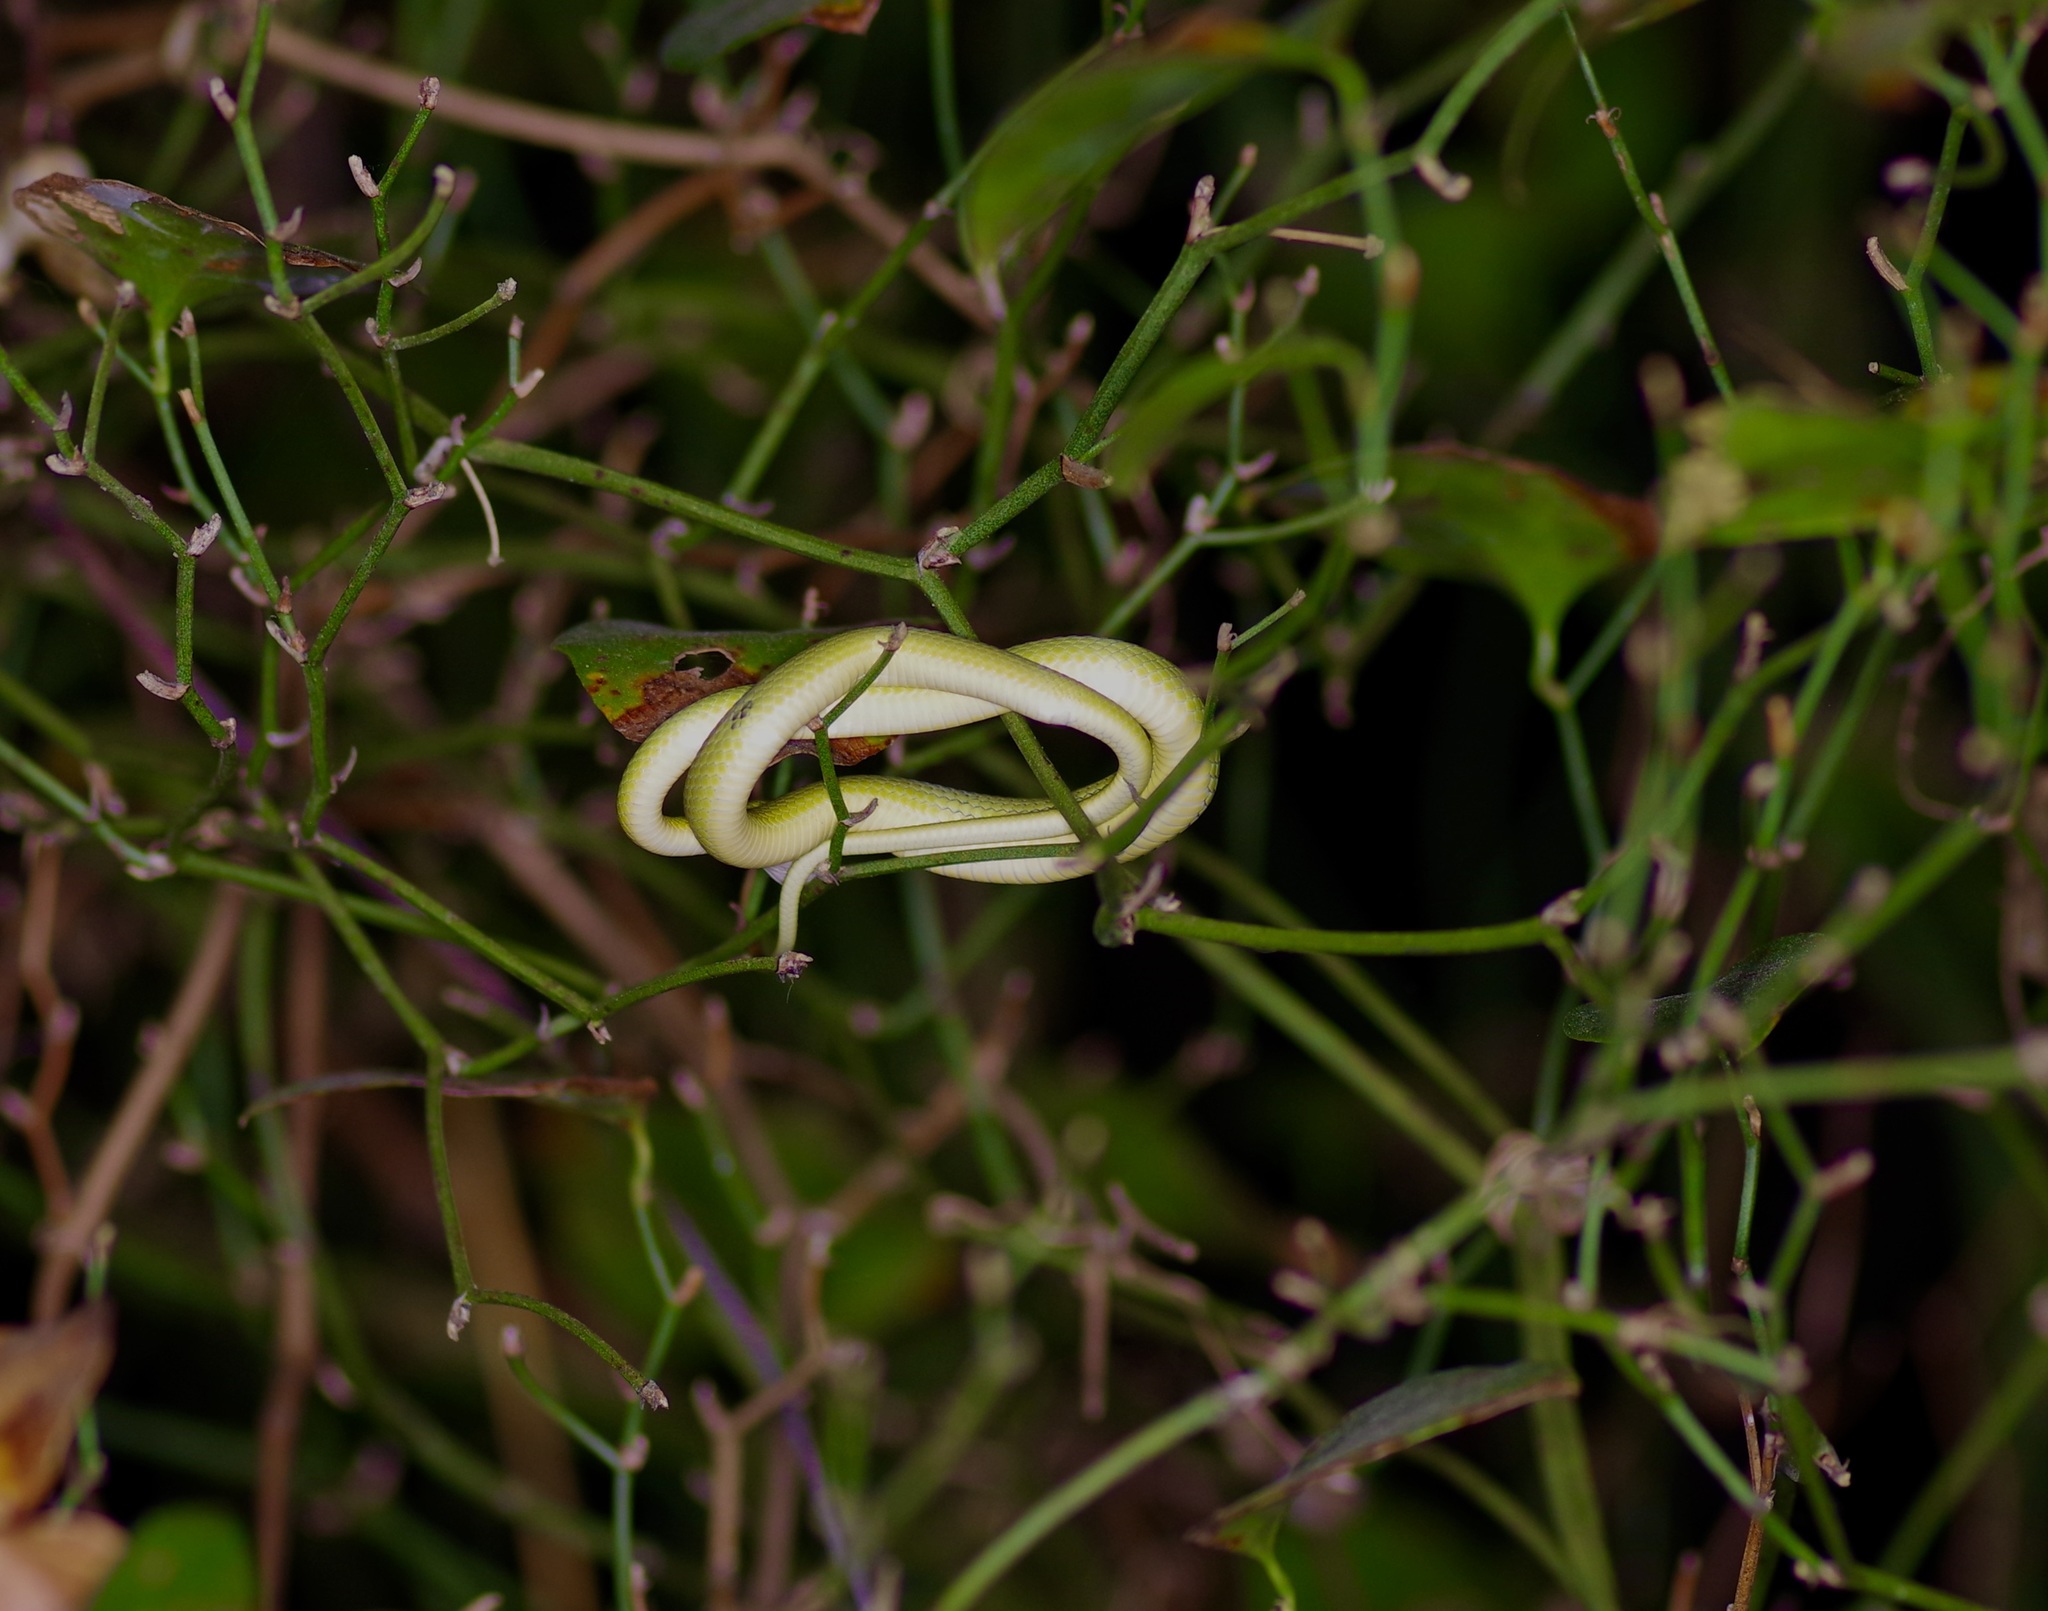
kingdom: Animalia
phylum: Chordata
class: Squamata
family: Colubridae
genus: Opheodrys
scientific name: Opheodrys aestivus
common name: Rough greensnake
